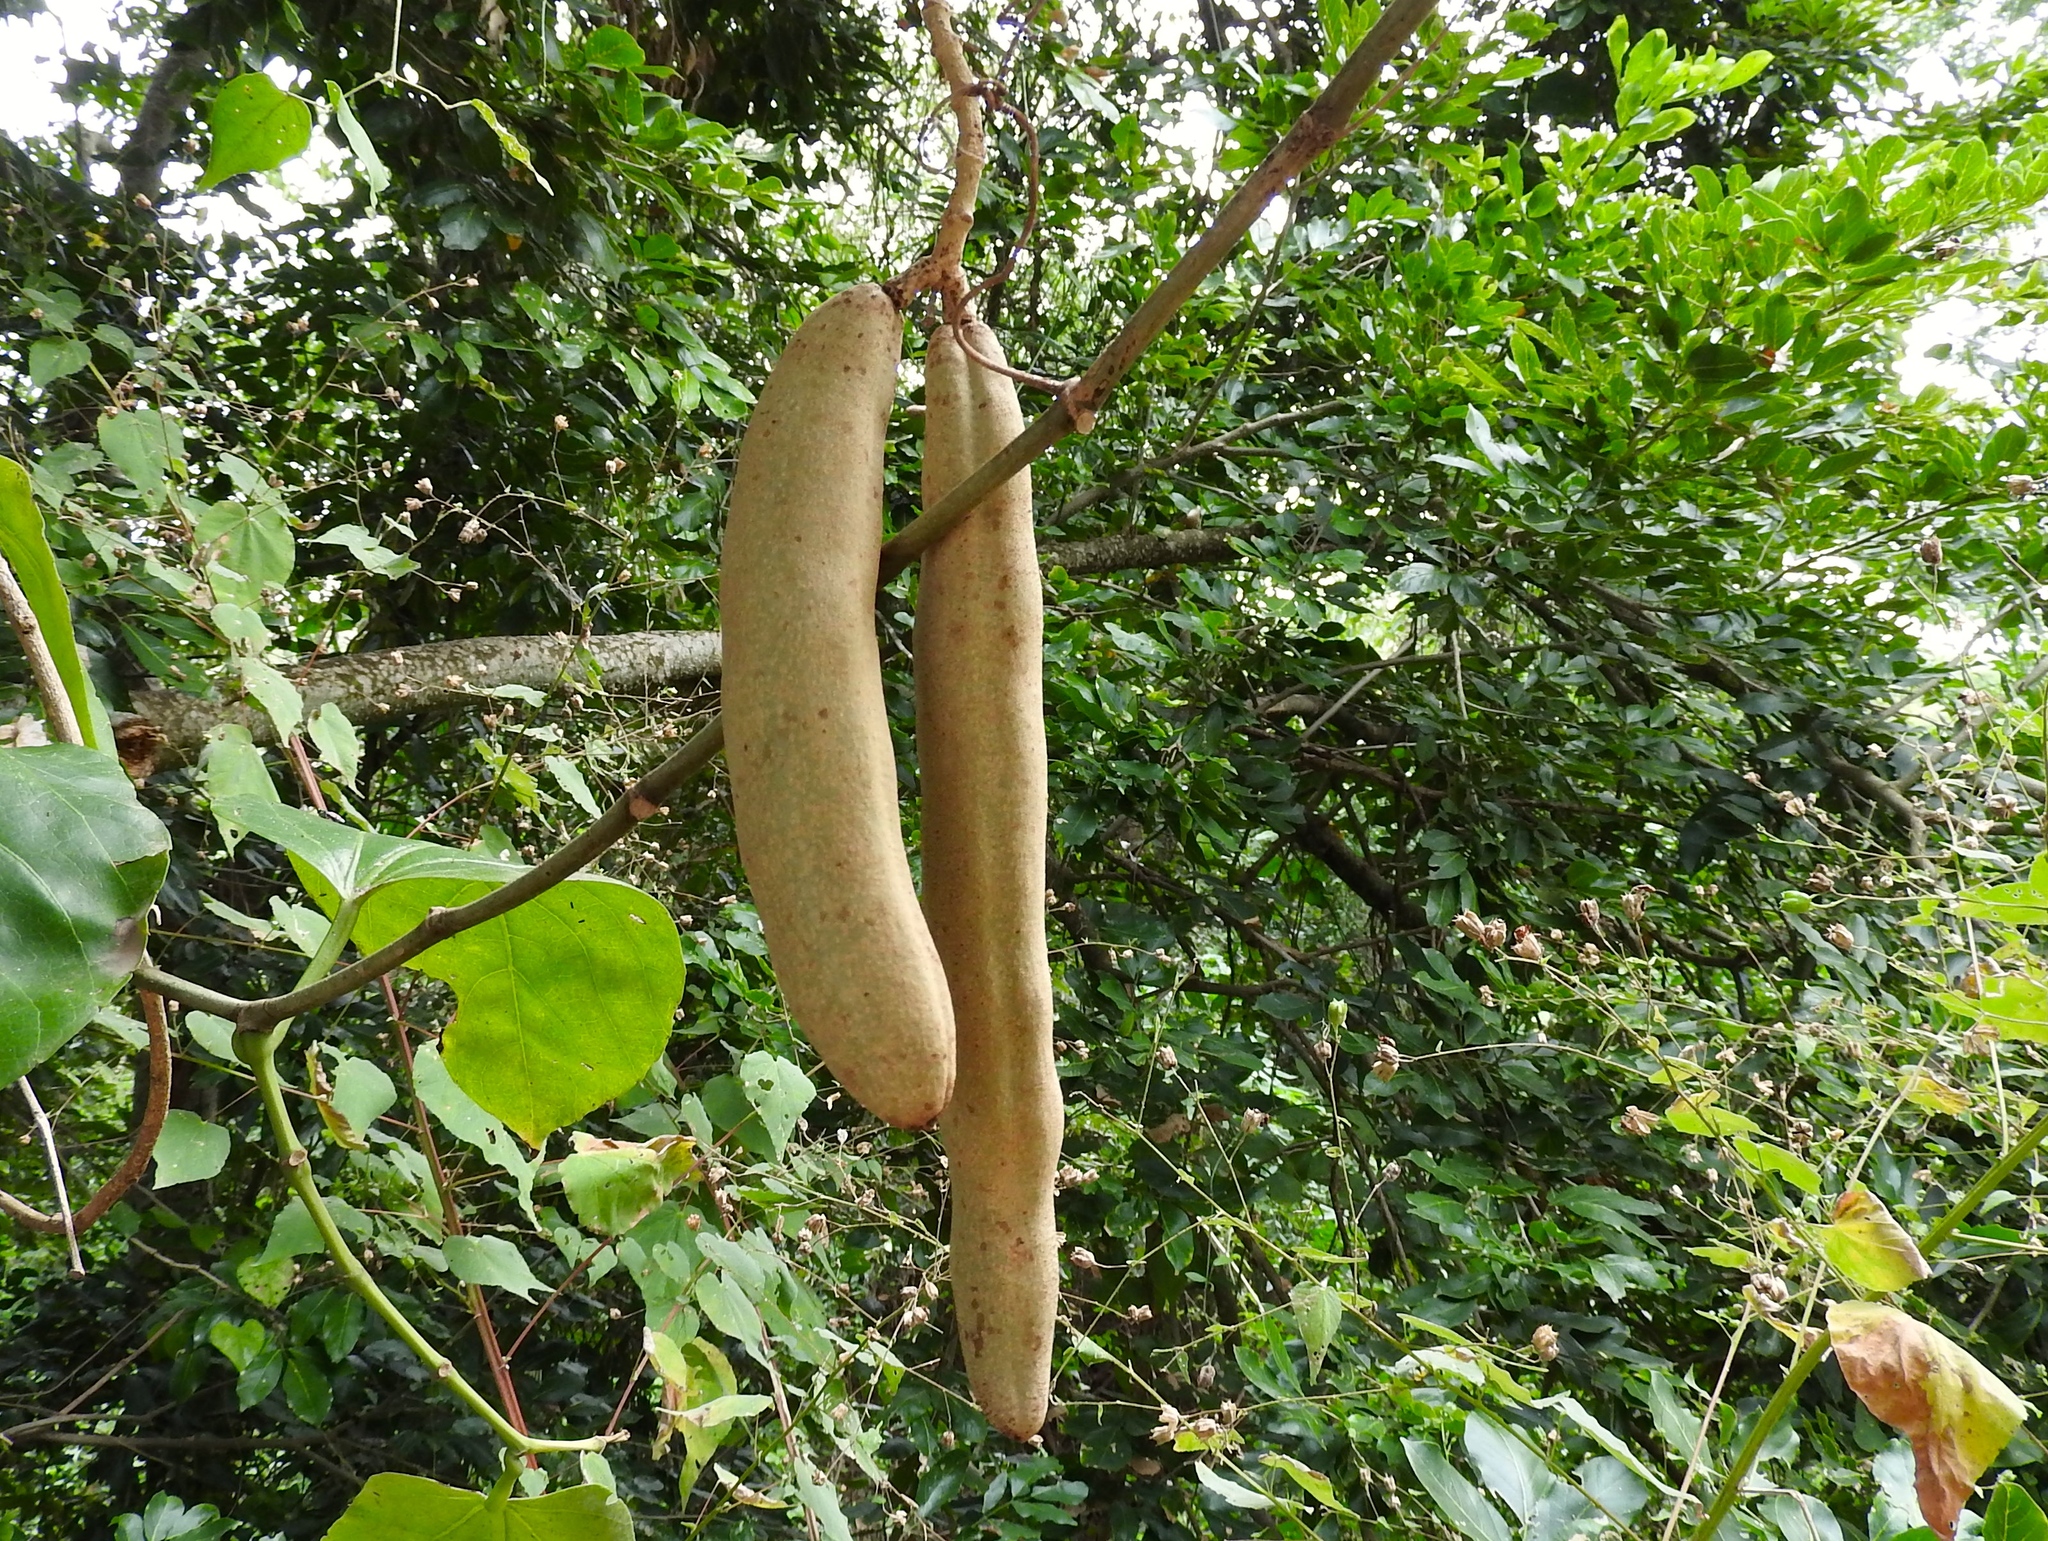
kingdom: Plantae
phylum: Tracheophyta
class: Magnoliopsida
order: Lamiales
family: Bignoniaceae
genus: Adenocalymma
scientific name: Adenocalymma inundatum
